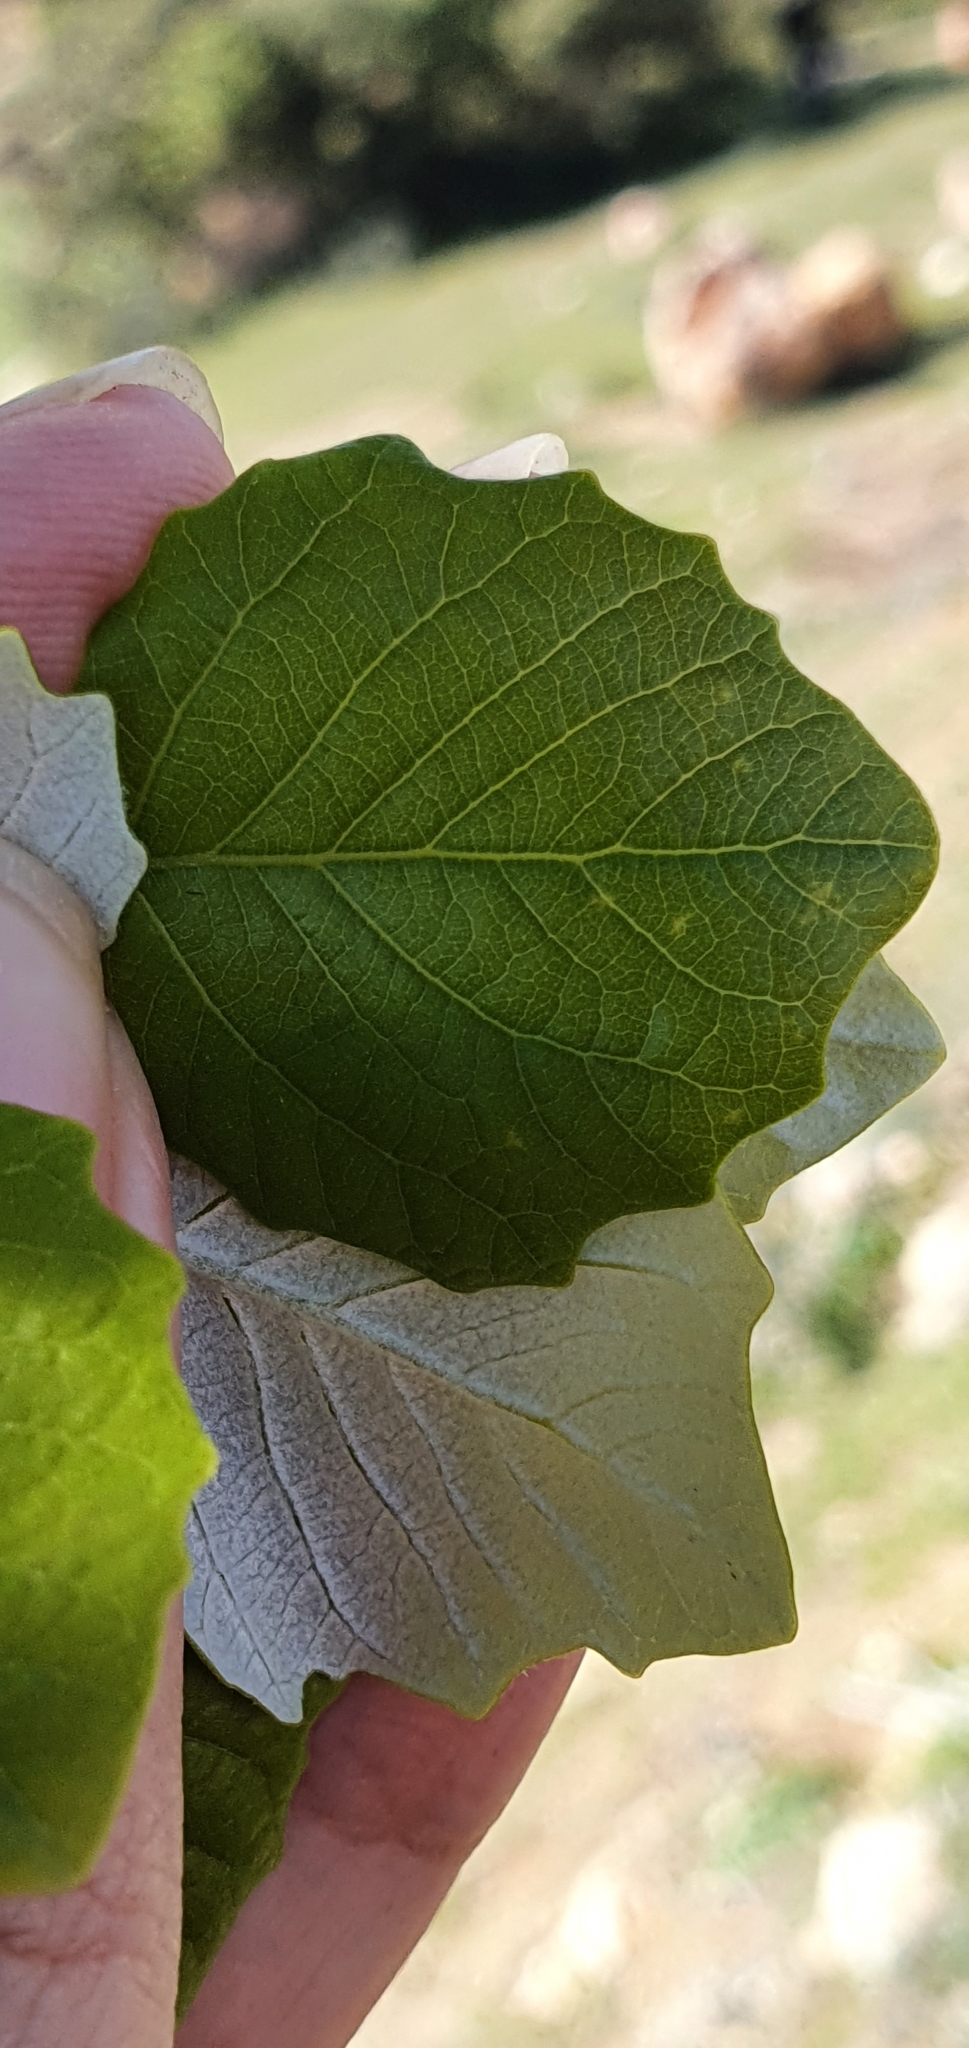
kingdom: Plantae
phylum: Tracheophyta
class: Magnoliopsida
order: Malpighiales
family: Salicaceae
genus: Populus
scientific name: Populus alba
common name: White poplar
